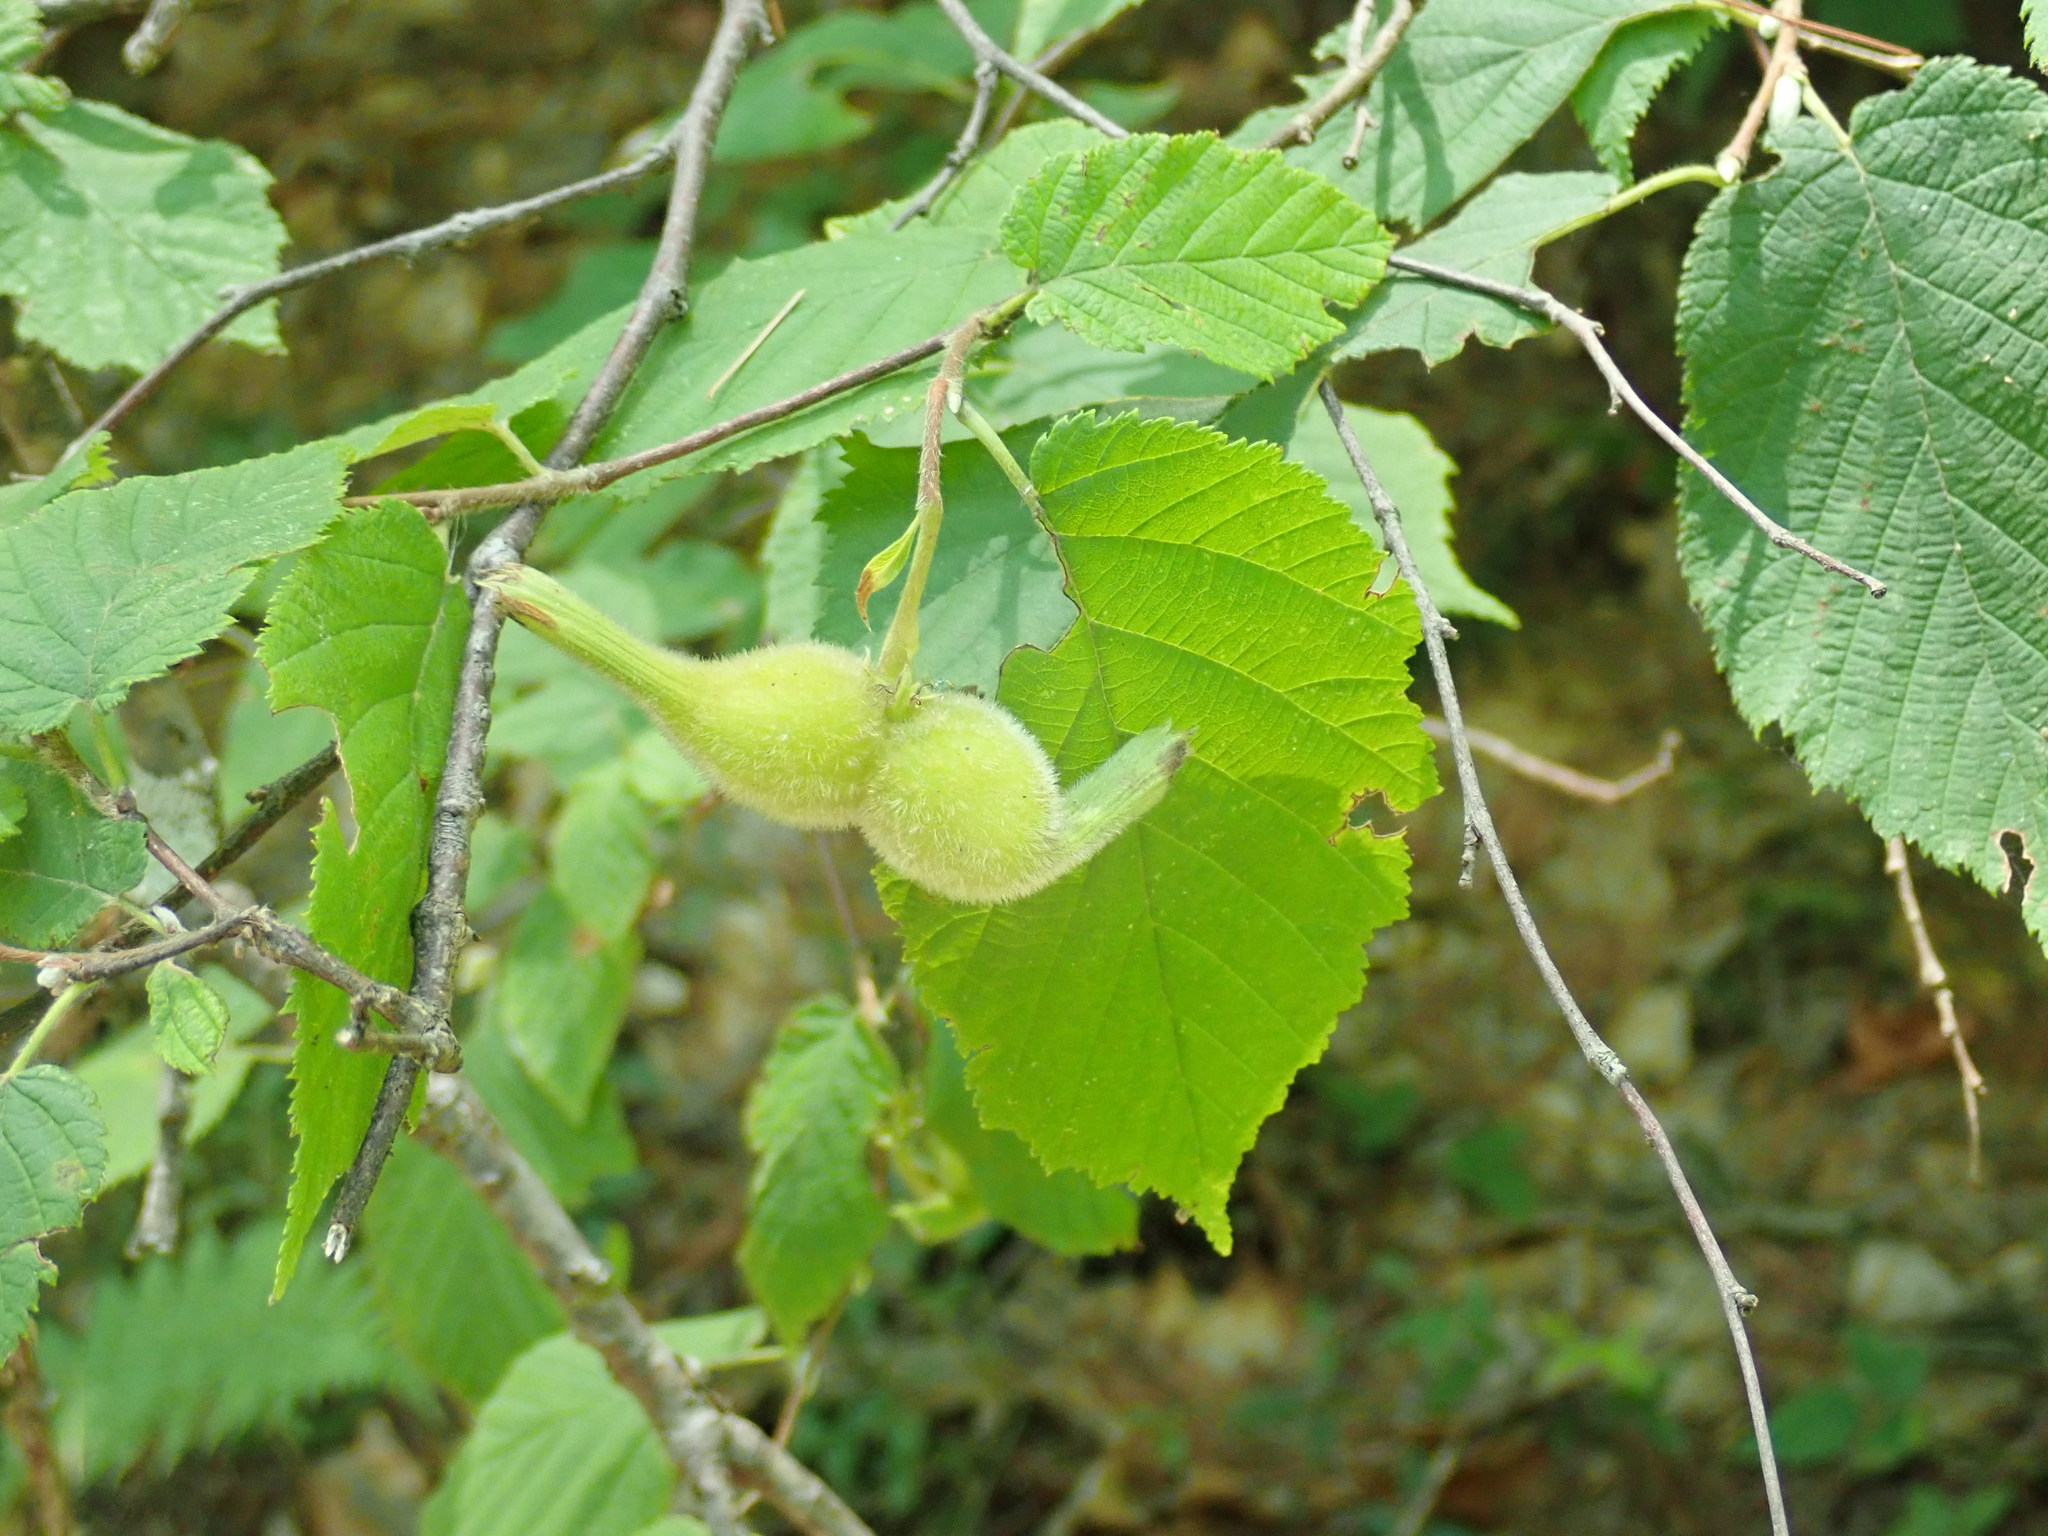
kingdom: Plantae
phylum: Tracheophyta
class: Magnoliopsida
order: Fagales
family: Betulaceae
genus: Corylus
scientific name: Corylus cornuta
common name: Beaked hazel
